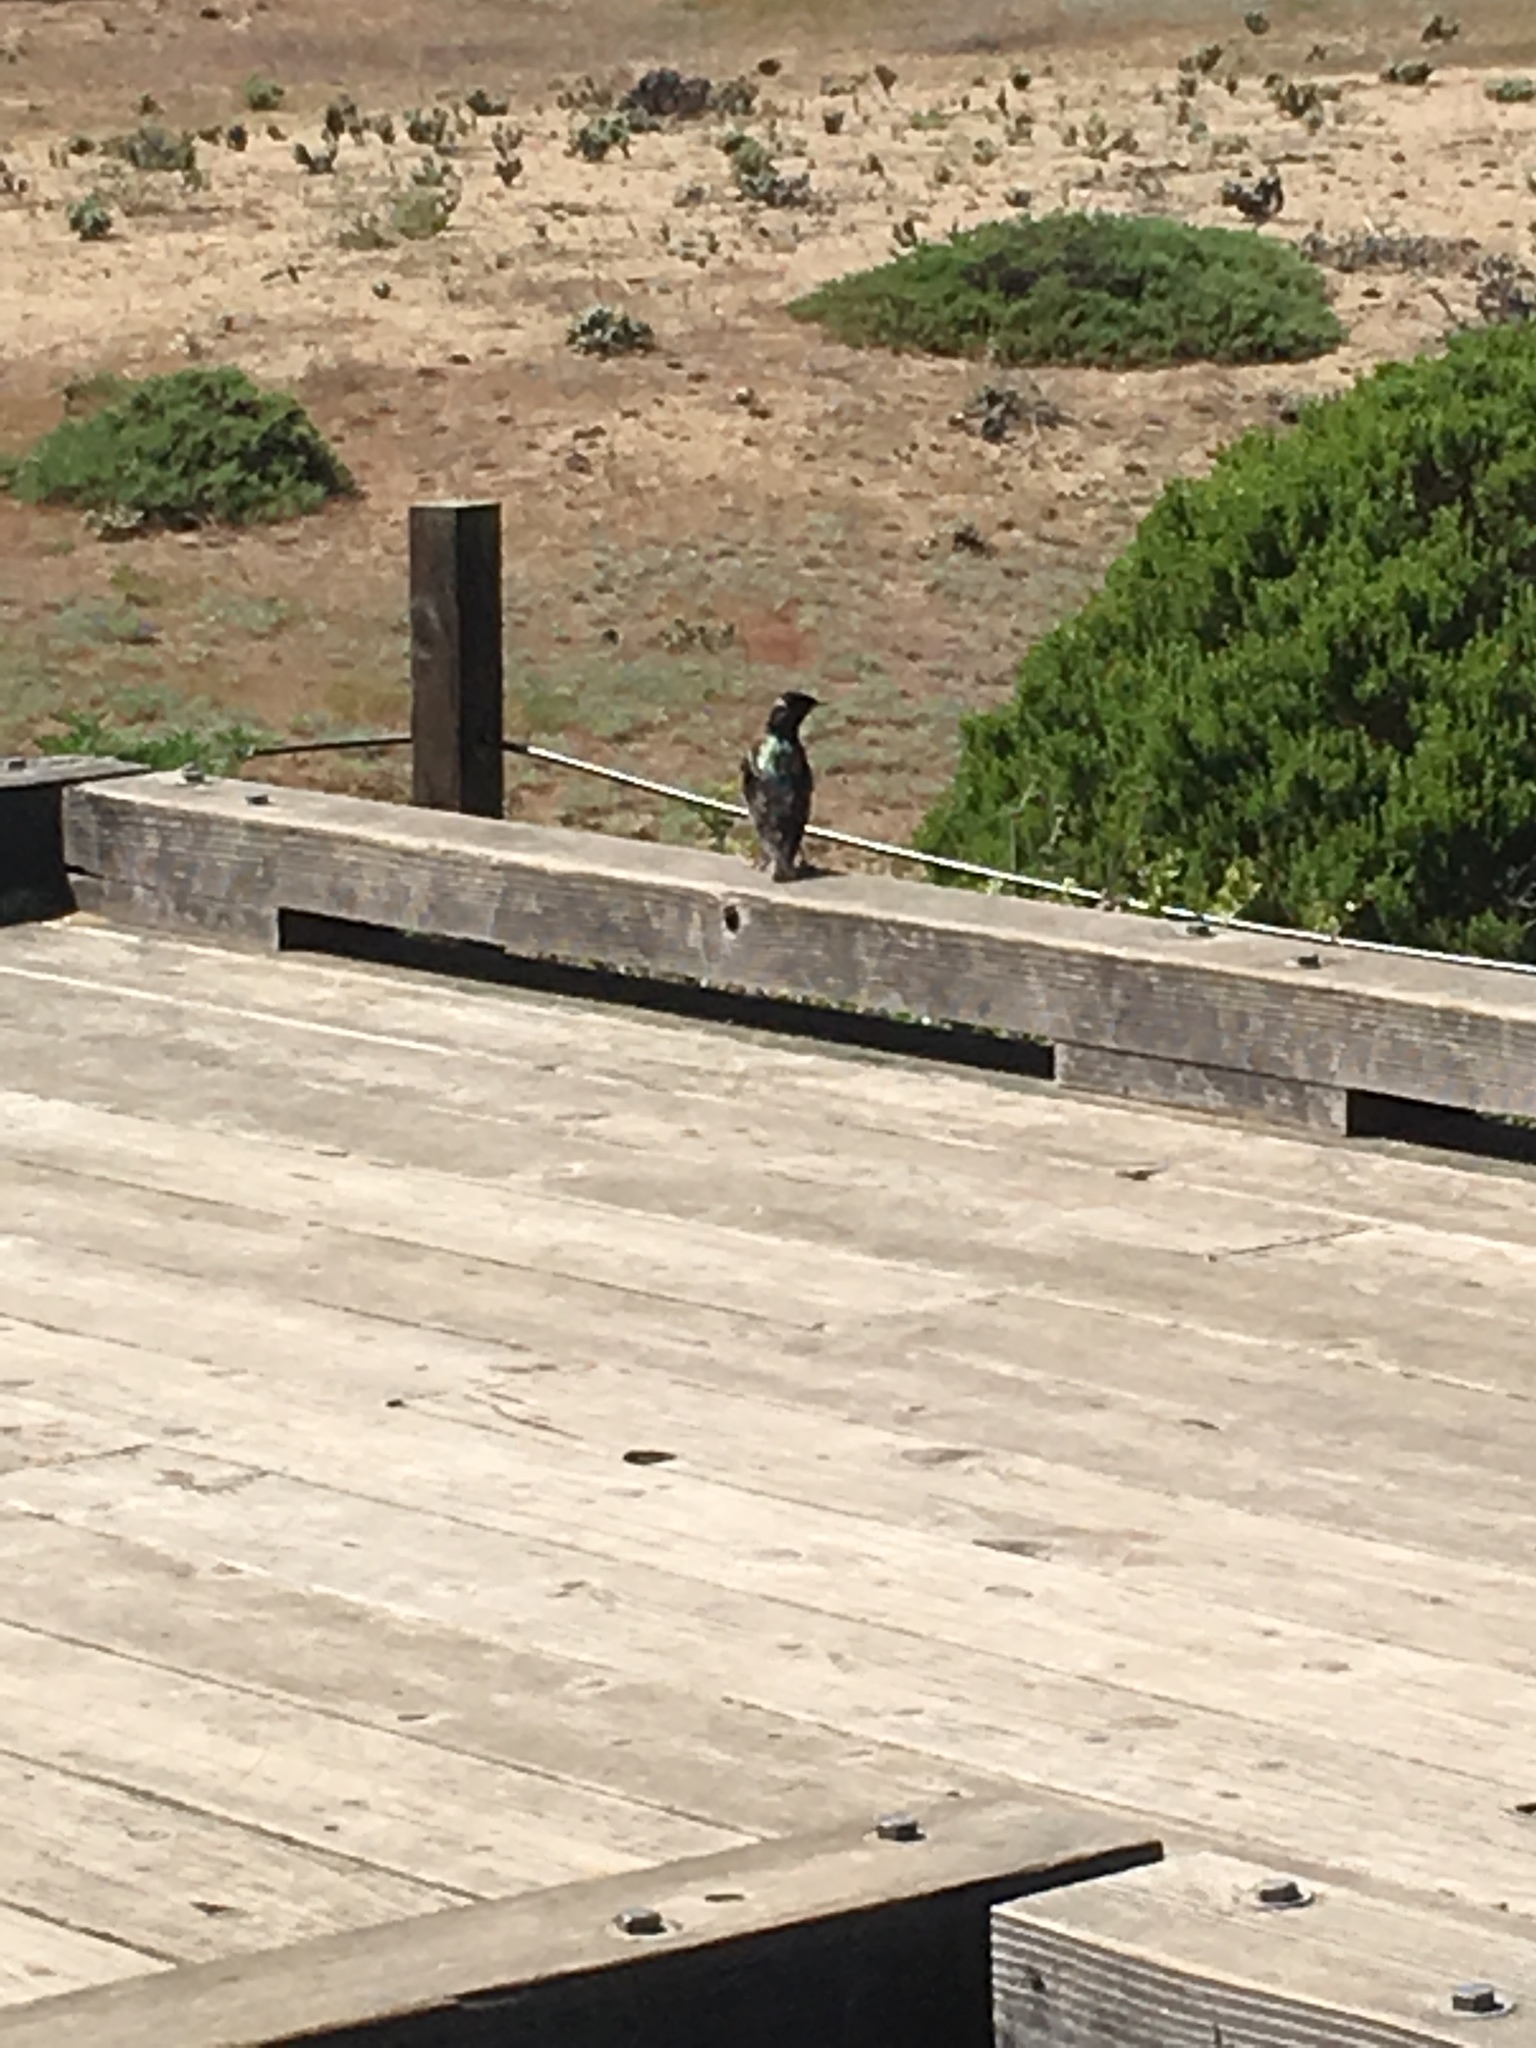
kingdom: Animalia
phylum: Chordata
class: Aves
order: Passeriformes
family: Sturnidae
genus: Sturnus
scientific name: Sturnus vulgaris
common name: Common starling
